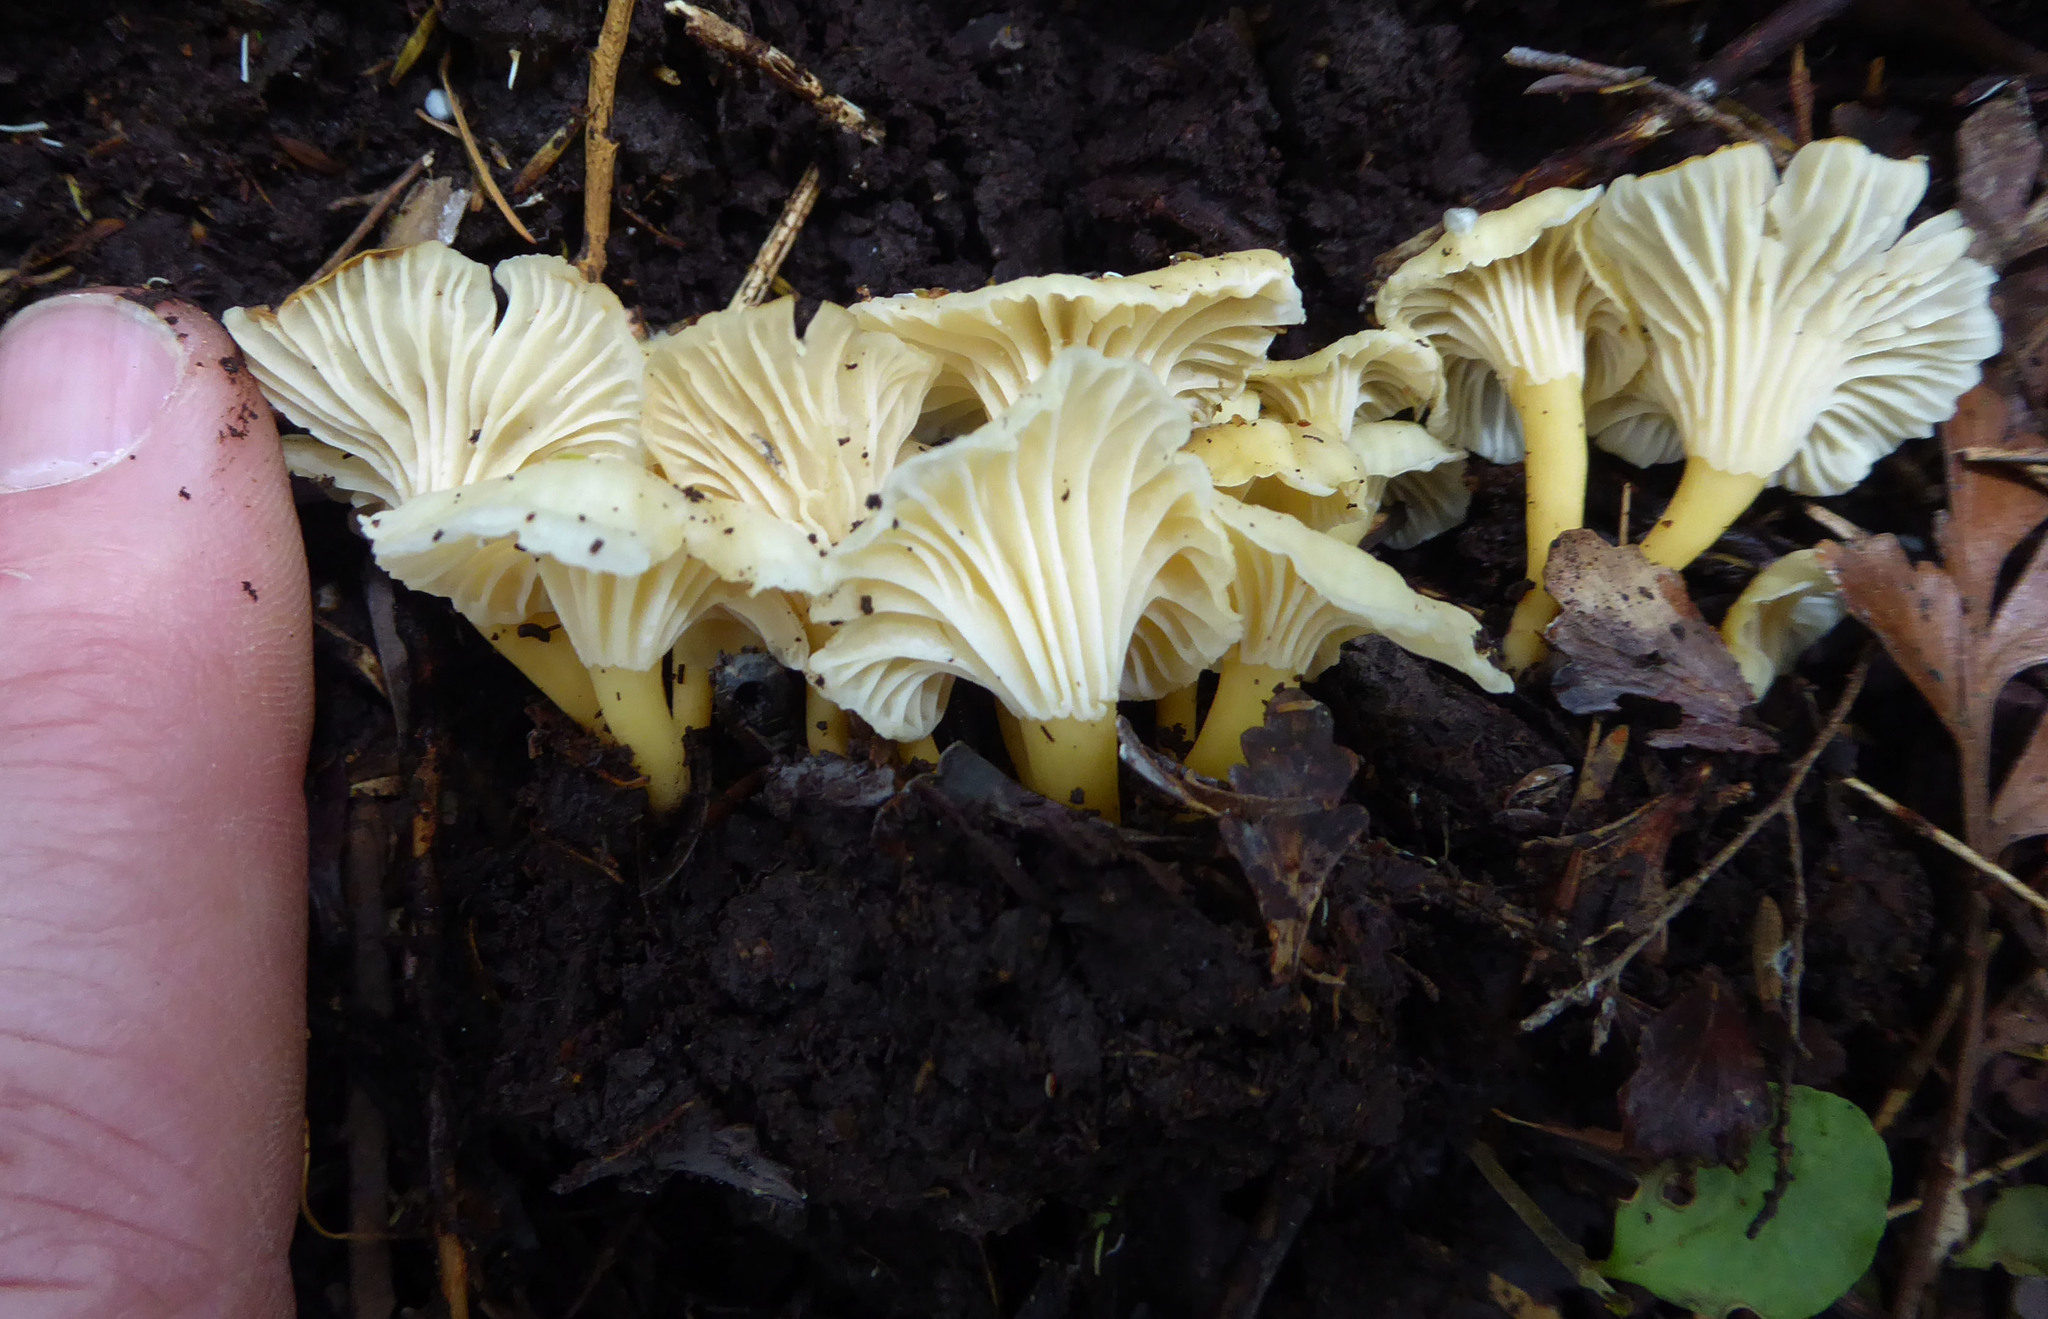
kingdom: Fungi
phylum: Basidiomycota
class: Agaricomycetes
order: Cantharellales
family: Hydnaceae
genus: Cantharellus
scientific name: Cantharellus wellingtonensis
